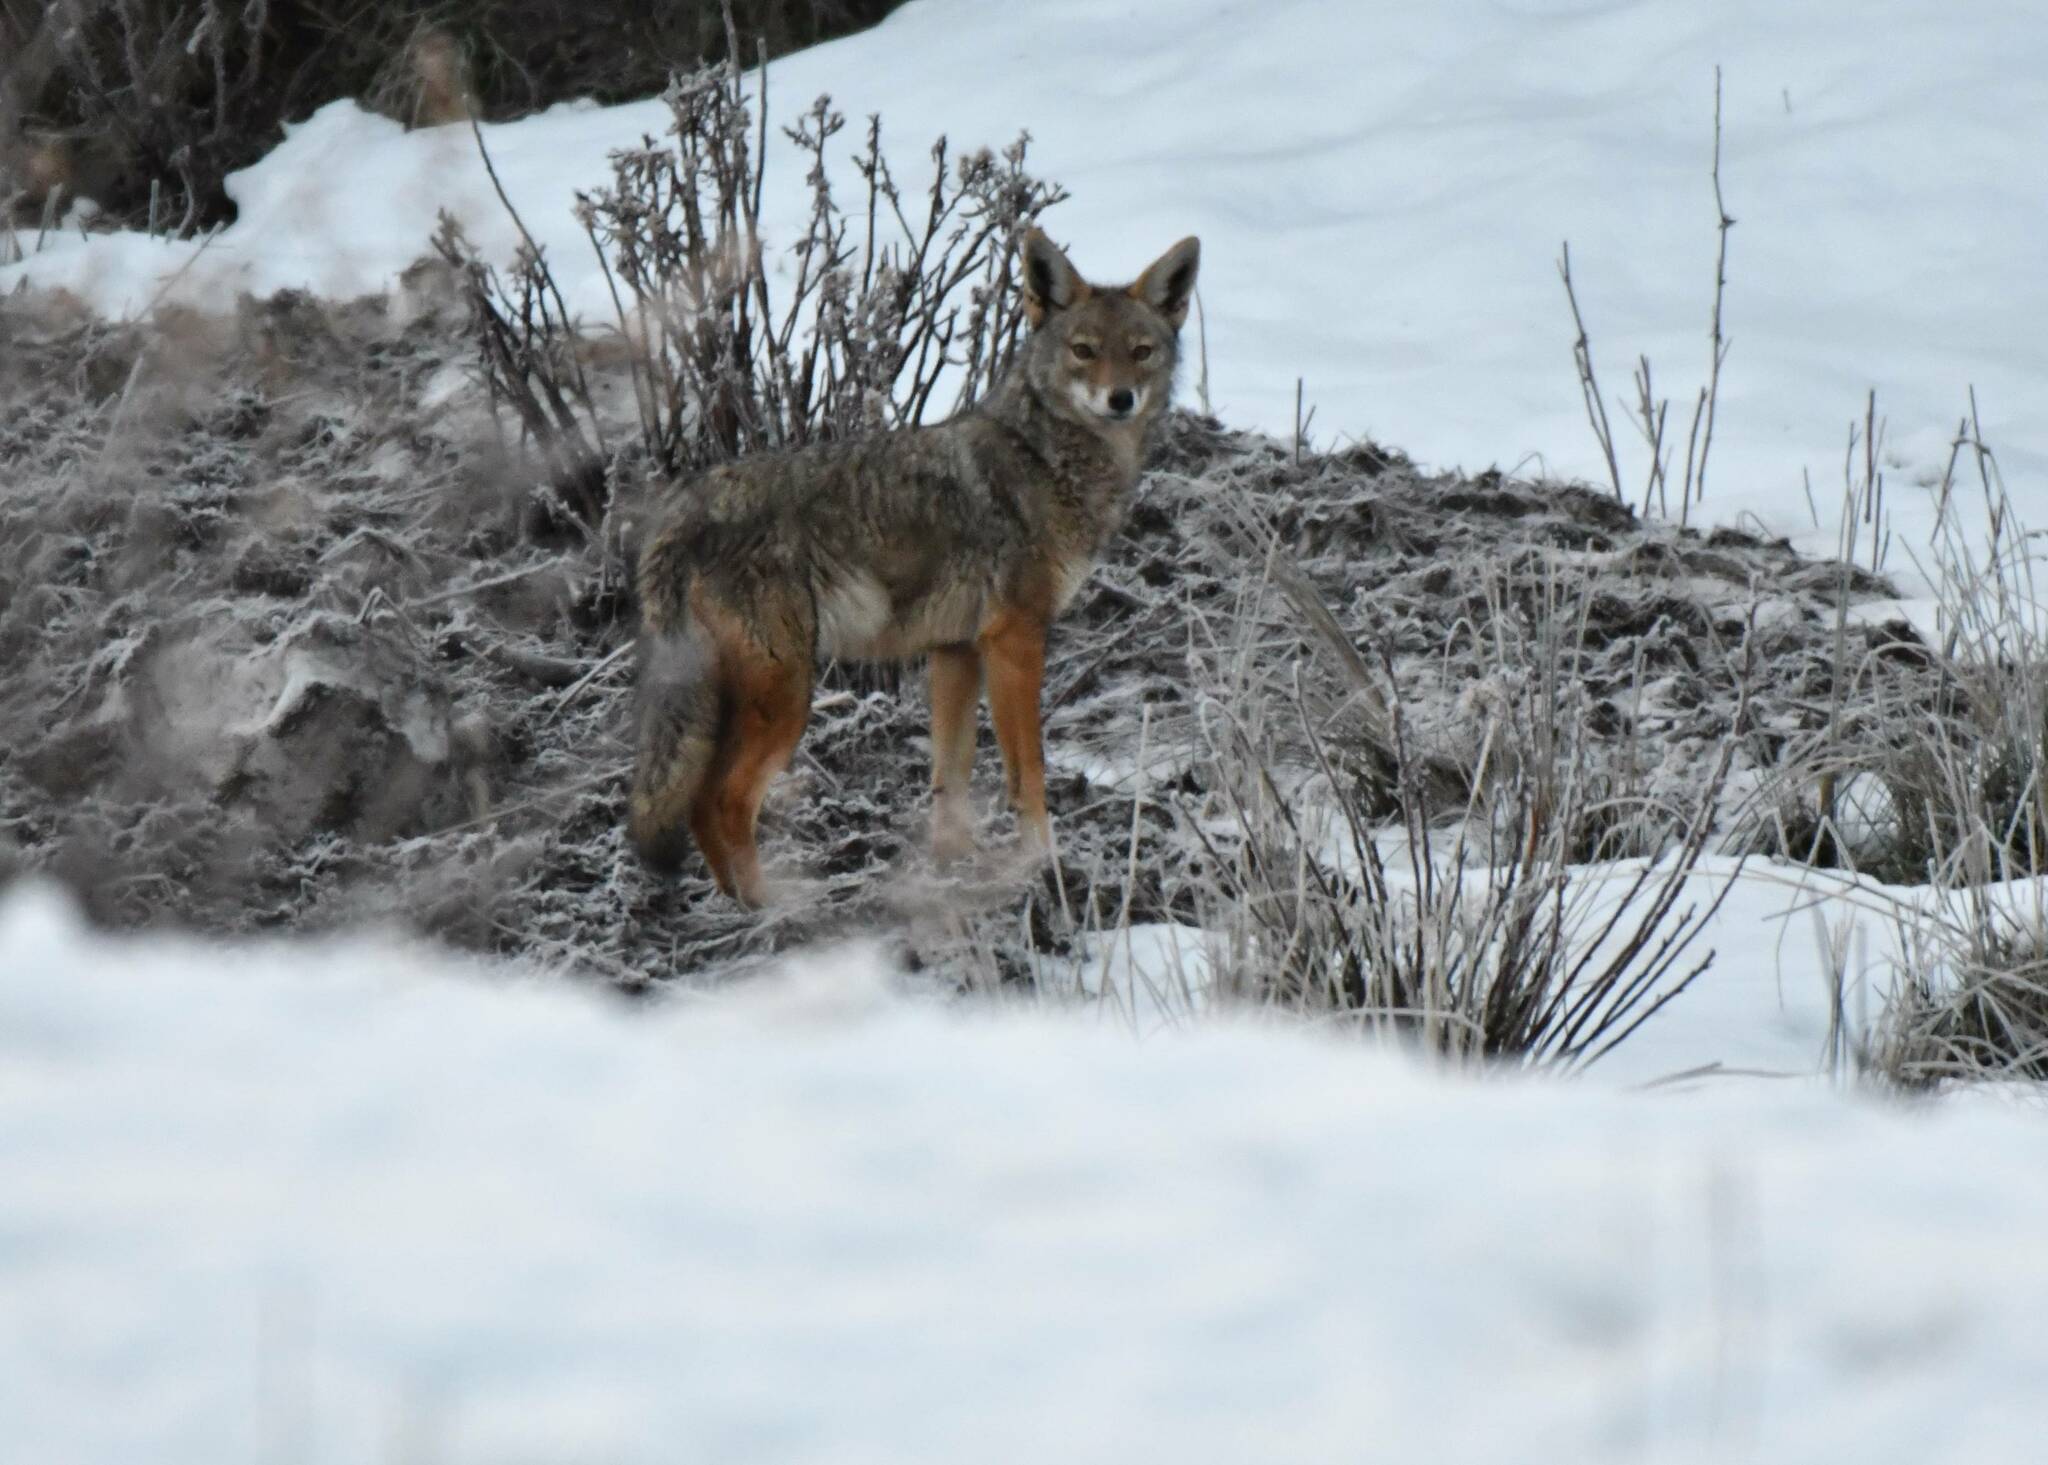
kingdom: Animalia
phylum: Chordata
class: Mammalia
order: Carnivora
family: Canidae
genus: Canis
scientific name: Canis lupaster
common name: African golden wolf
